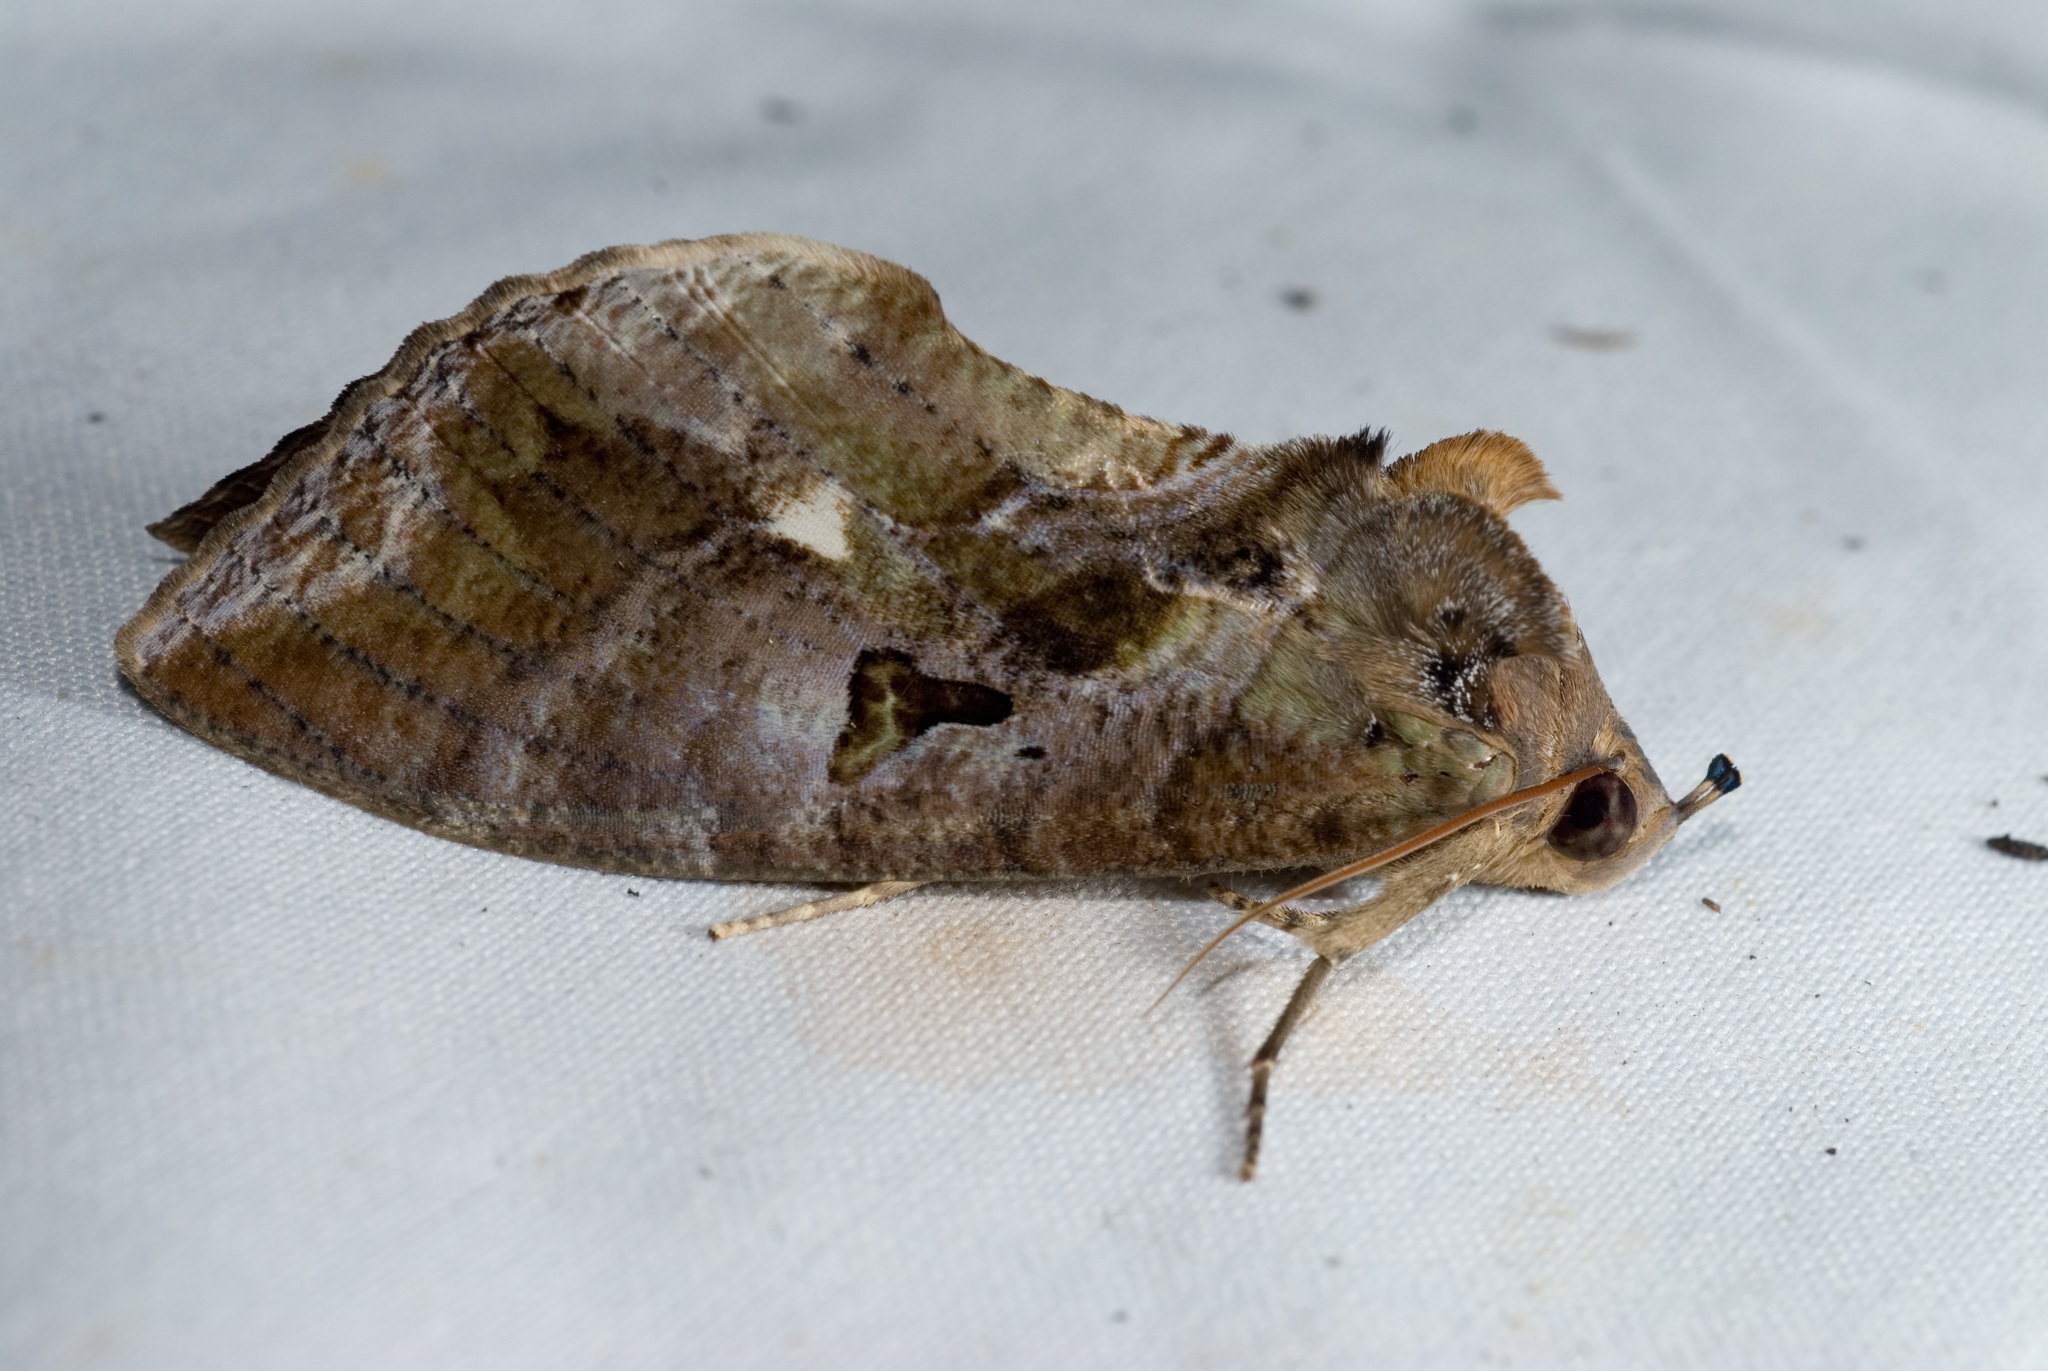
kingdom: Animalia
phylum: Arthropoda
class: Insecta
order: Lepidoptera
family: Erebidae
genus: Eudocima
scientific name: Eudocima phalonia
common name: Wasp
